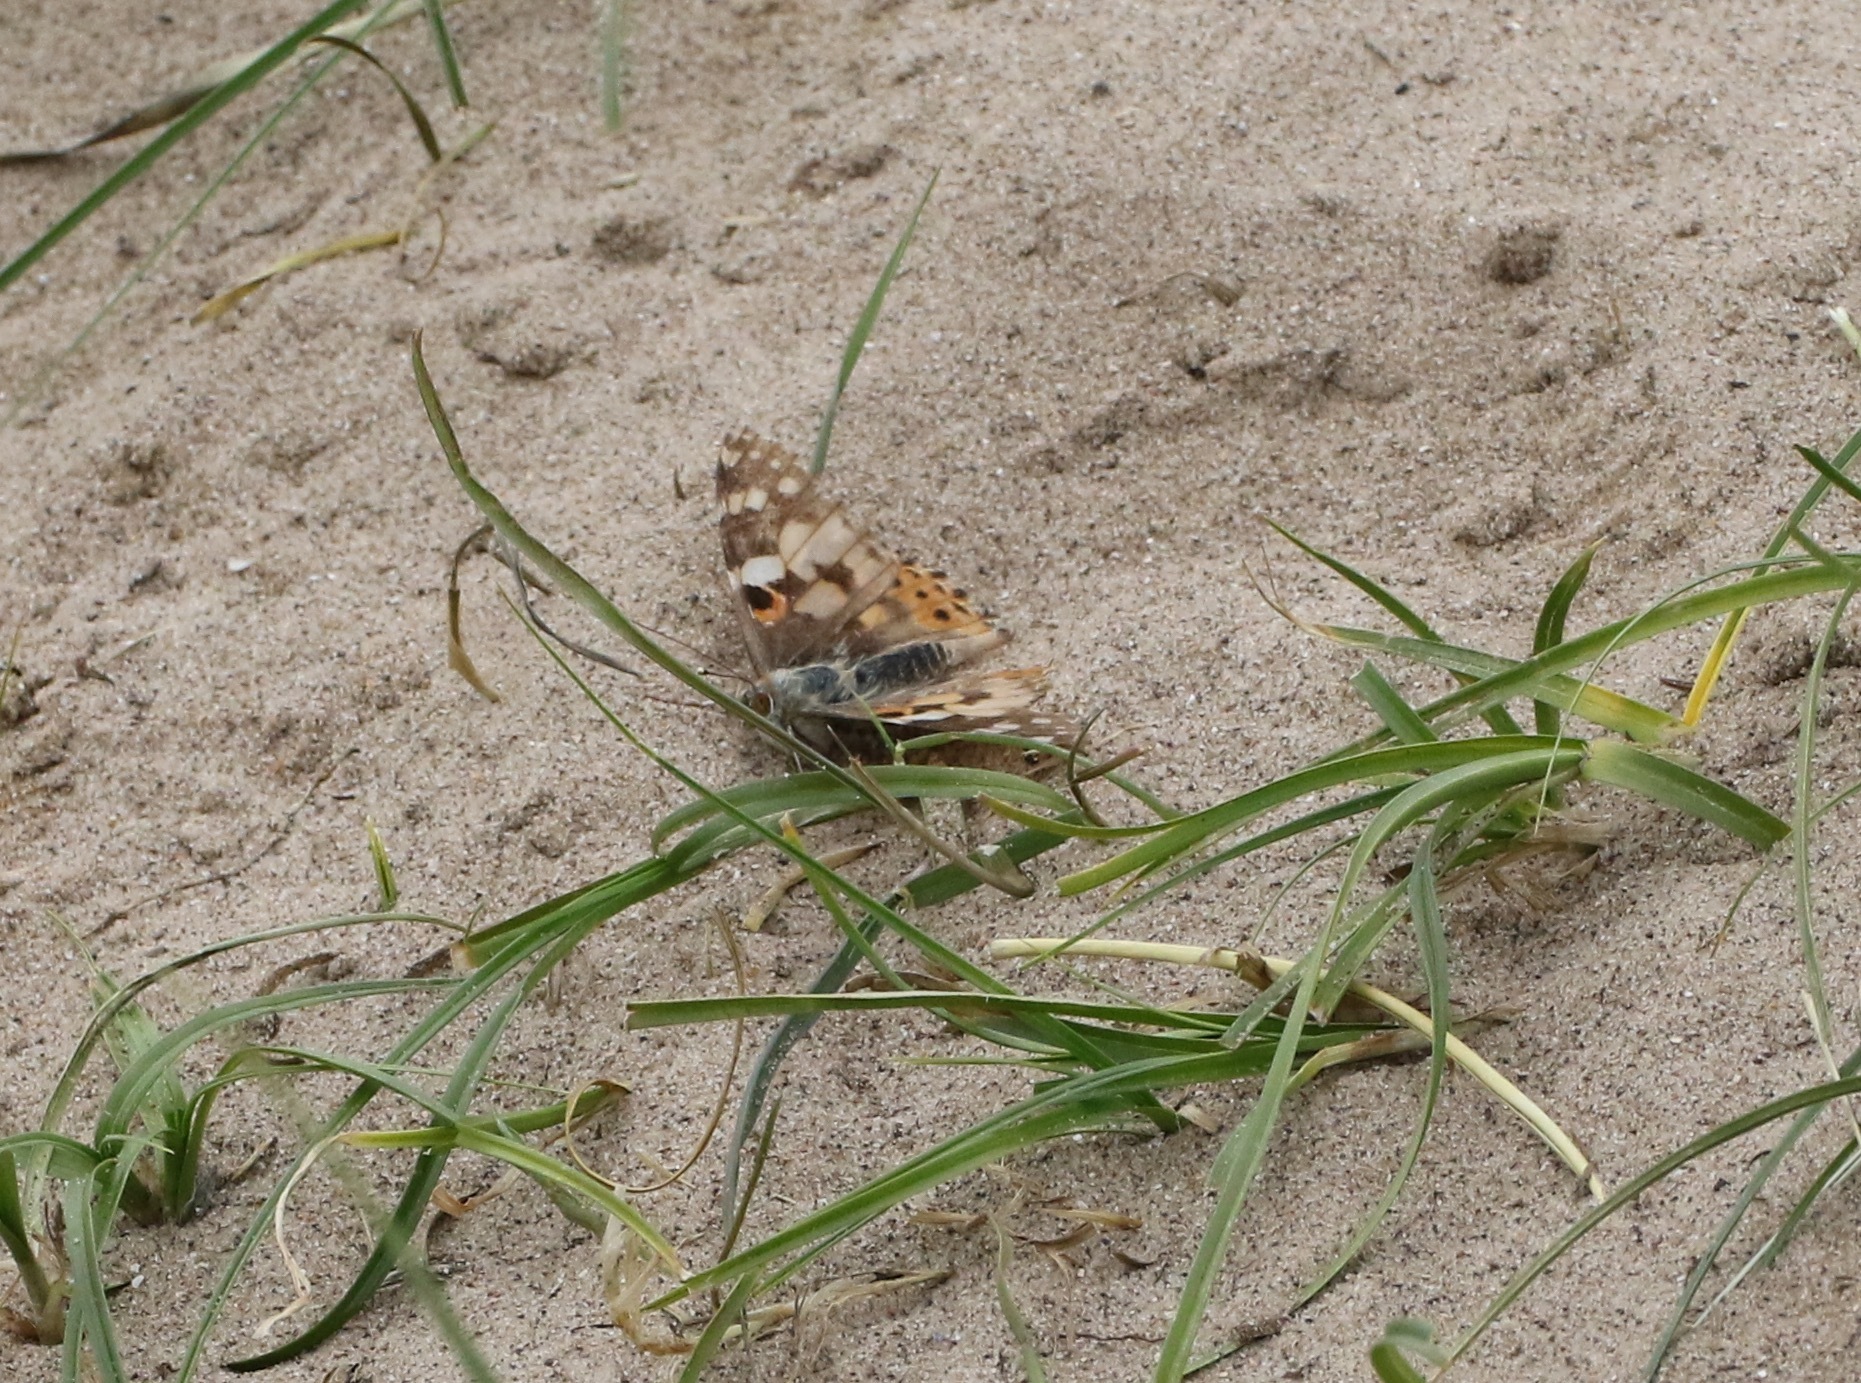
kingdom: Animalia
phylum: Arthropoda
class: Insecta
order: Lepidoptera
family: Nymphalidae
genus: Vanessa
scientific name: Vanessa cardui
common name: Painted lady
